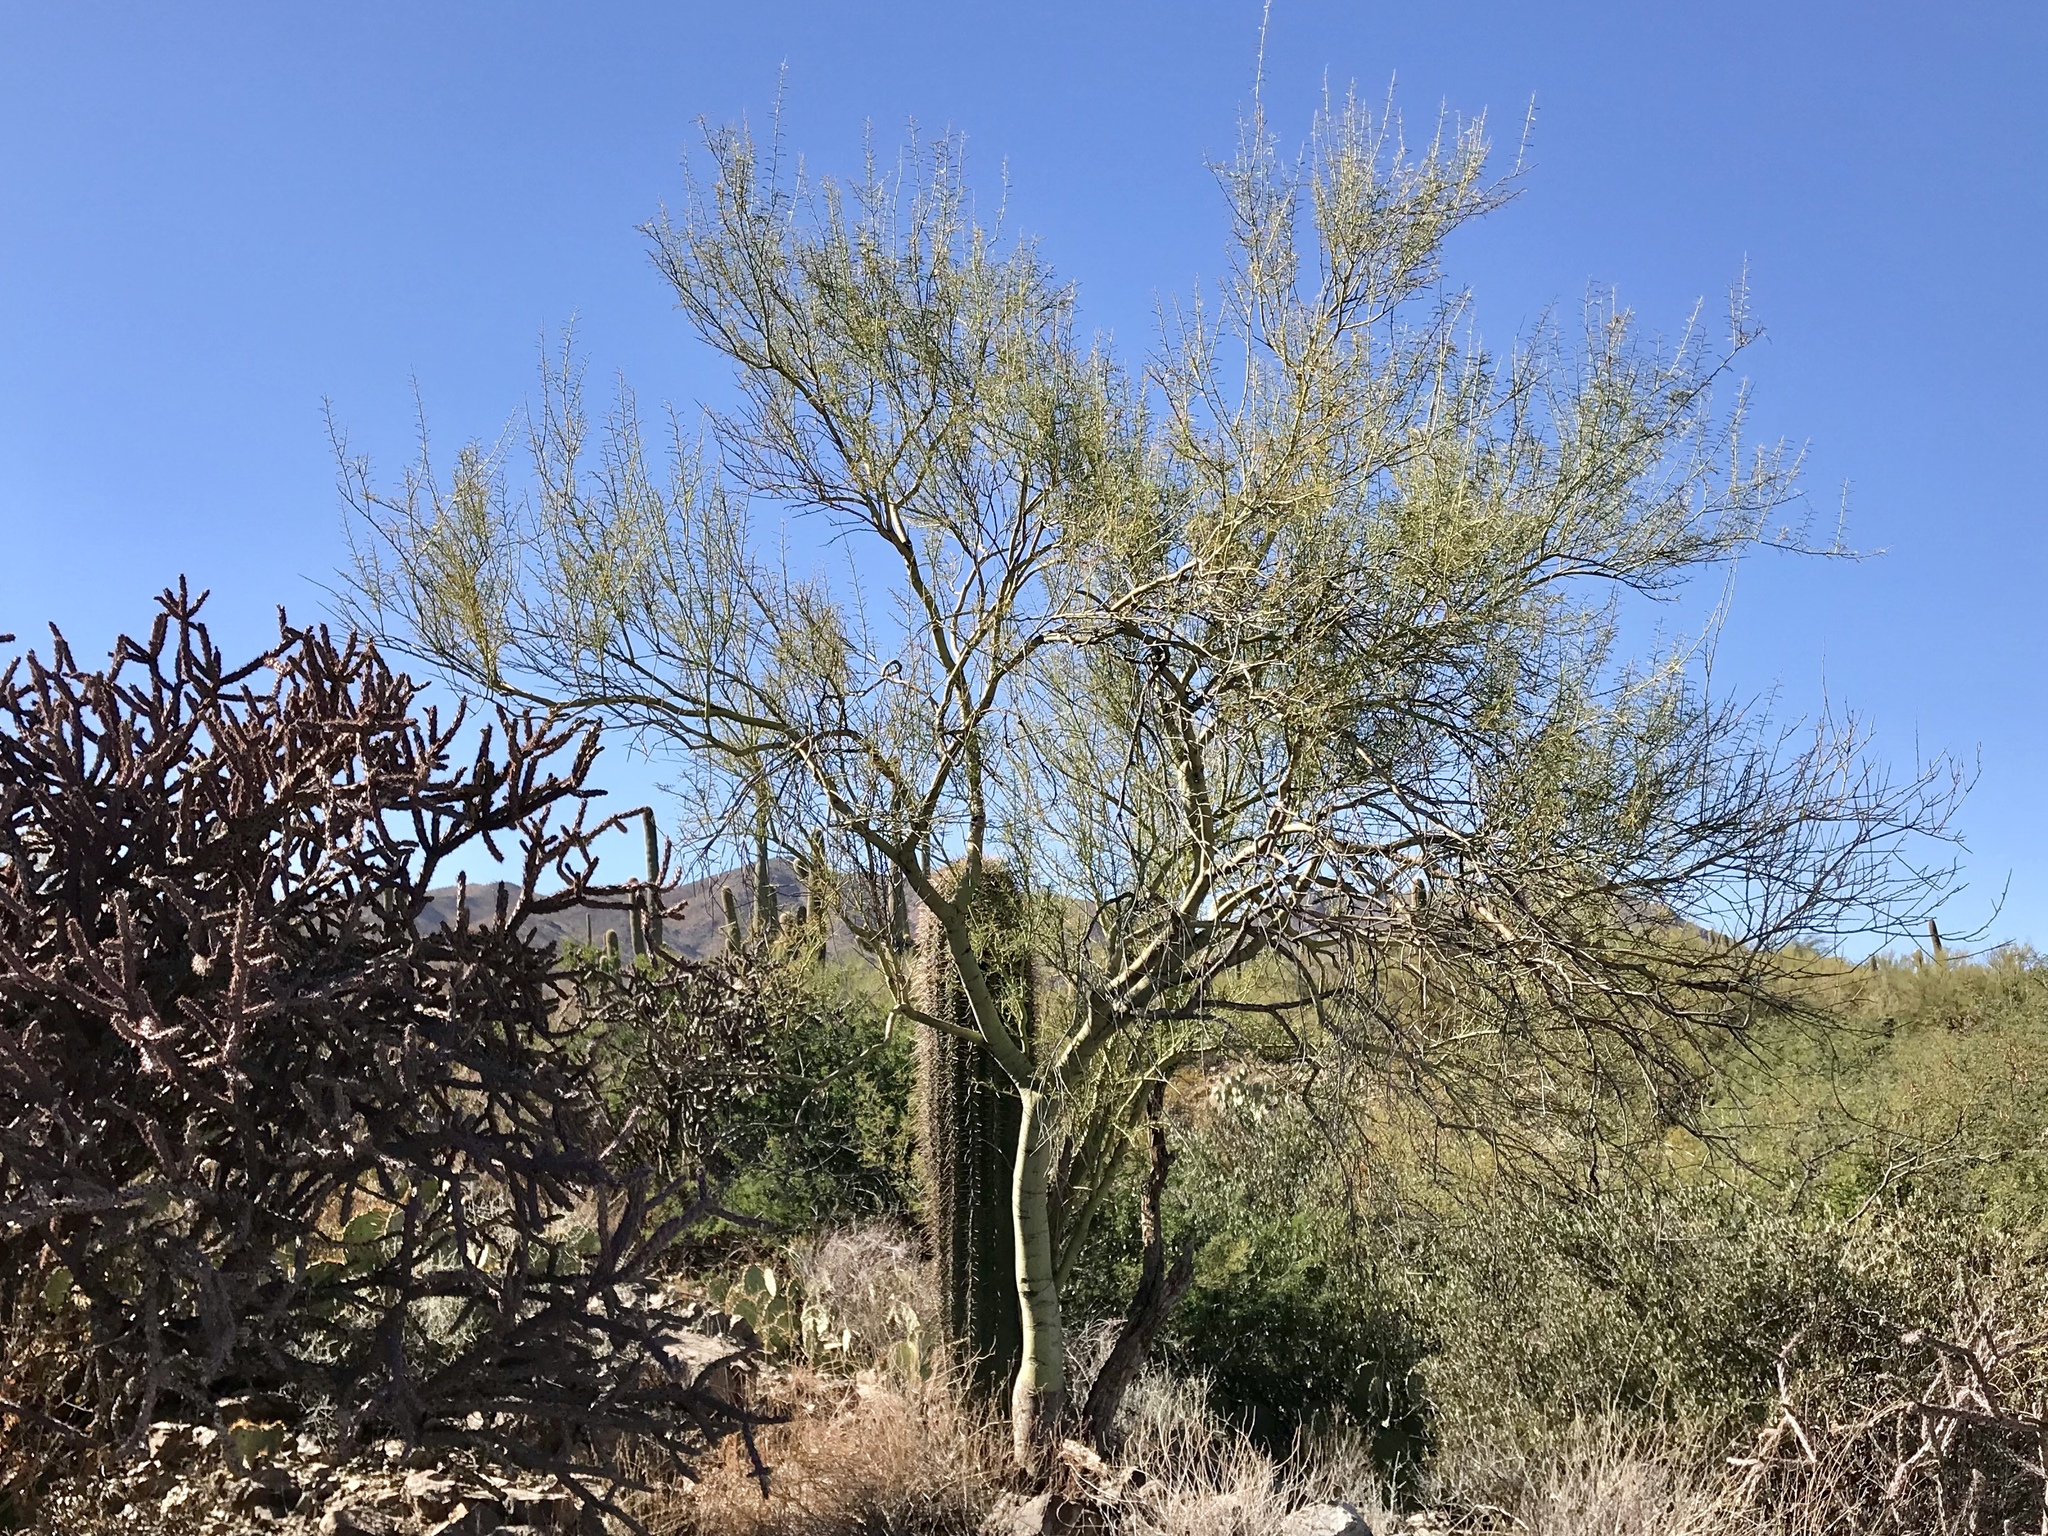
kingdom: Plantae
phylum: Tracheophyta
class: Magnoliopsida
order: Fabales
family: Fabaceae
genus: Parkinsonia
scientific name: Parkinsonia microphylla
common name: Yellow paloverde
